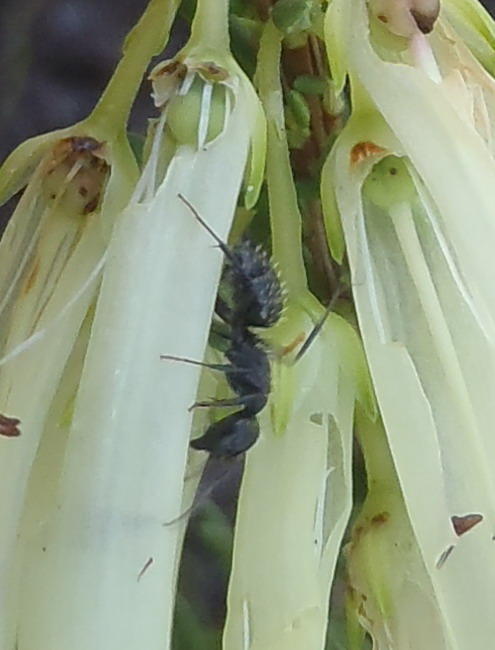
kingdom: Animalia
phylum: Arthropoda
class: Insecta
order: Hymenoptera
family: Formicidae
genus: Camponotus
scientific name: Camponotus niveosetosus
